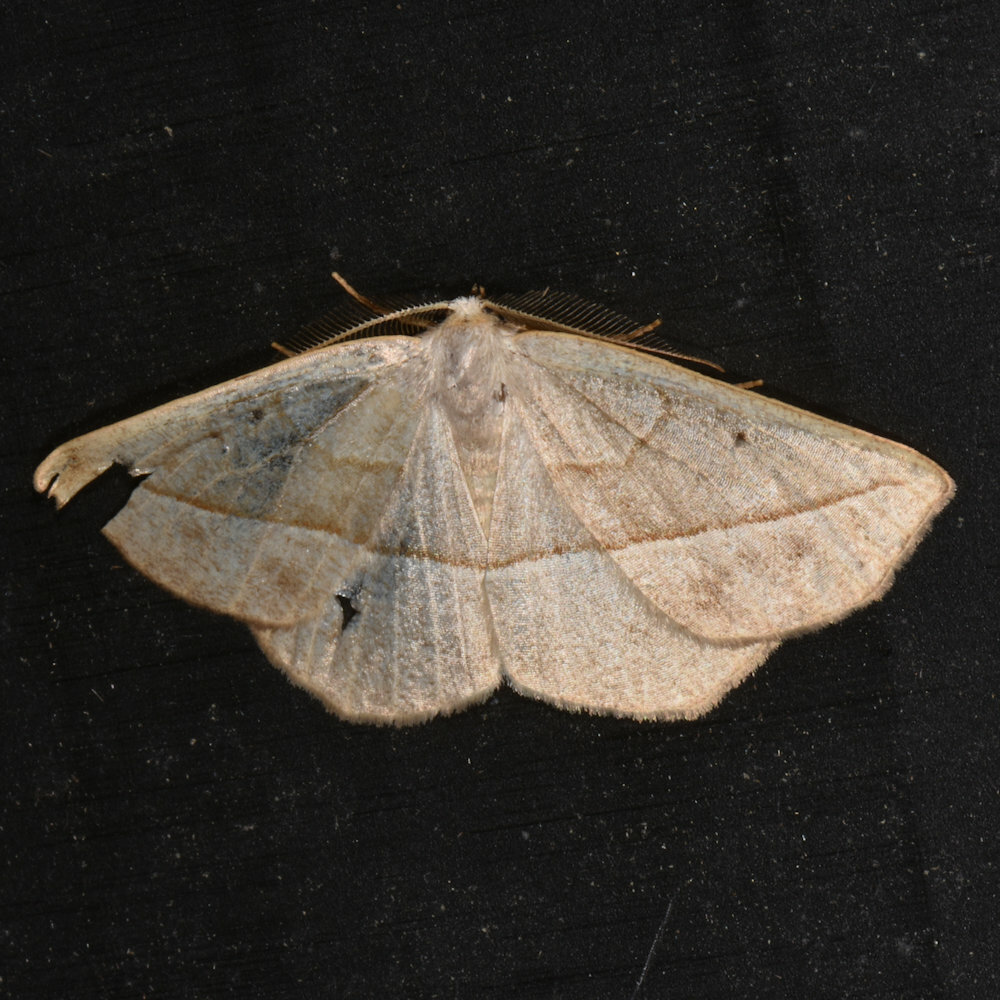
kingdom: Animalia
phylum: Arthropoda
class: Insecta
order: Lepidoptera
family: Geometridae
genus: Eusarca
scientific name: Eusarca confusaria
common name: Confused eusarca
